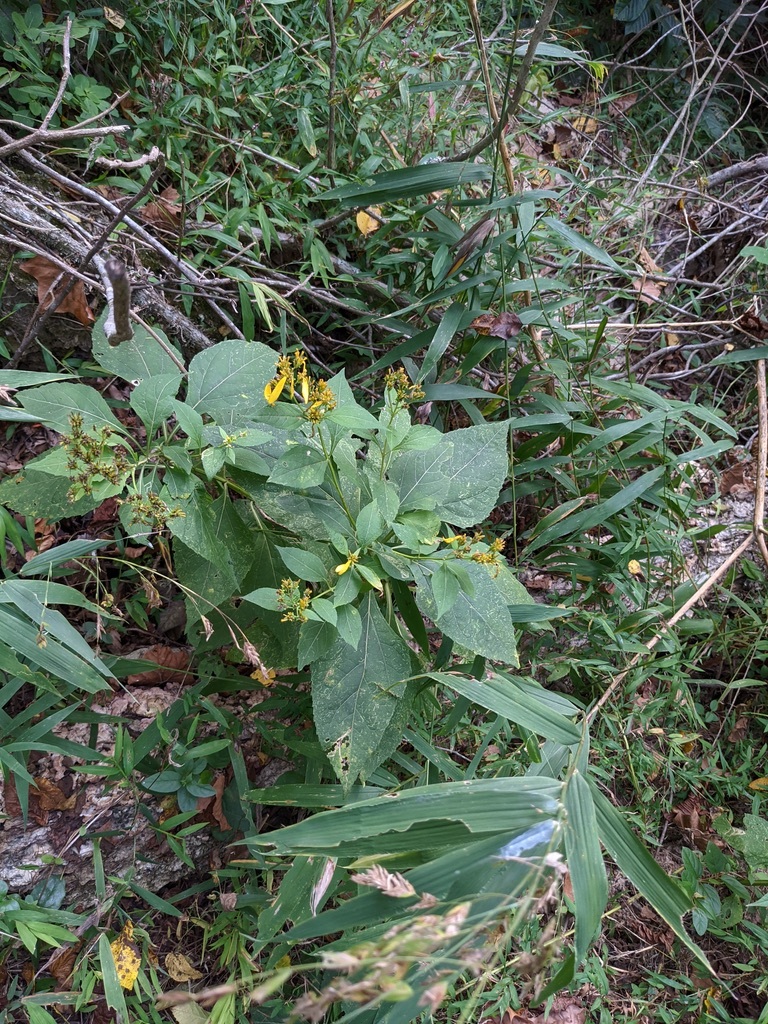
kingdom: Plantae
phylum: Tracheophyta
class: Magnoliopsida
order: Asterales
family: Asteraceae
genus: Verbesina
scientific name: Verbesina occidentalis
